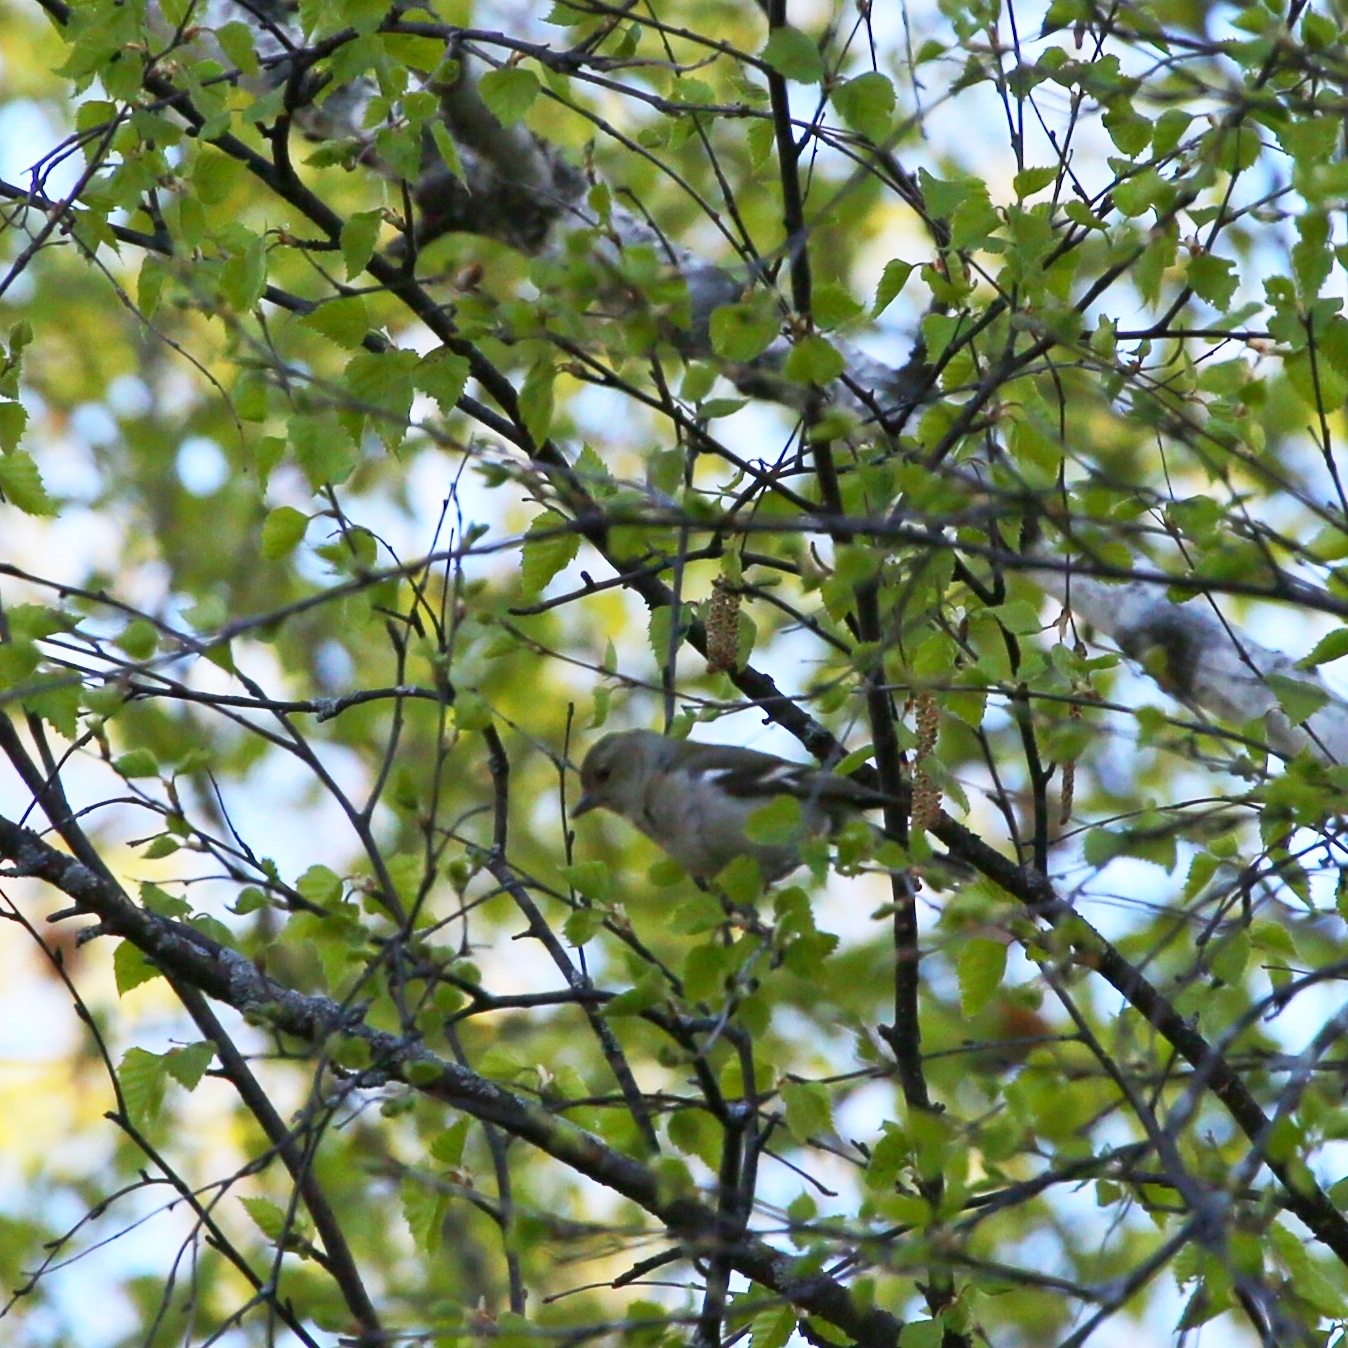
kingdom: Animalia
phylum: Chordata
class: Aves
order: Passeriformes
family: Fringillidae
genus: Fringilla
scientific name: Fringilla coelebs
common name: Common chaffinch
